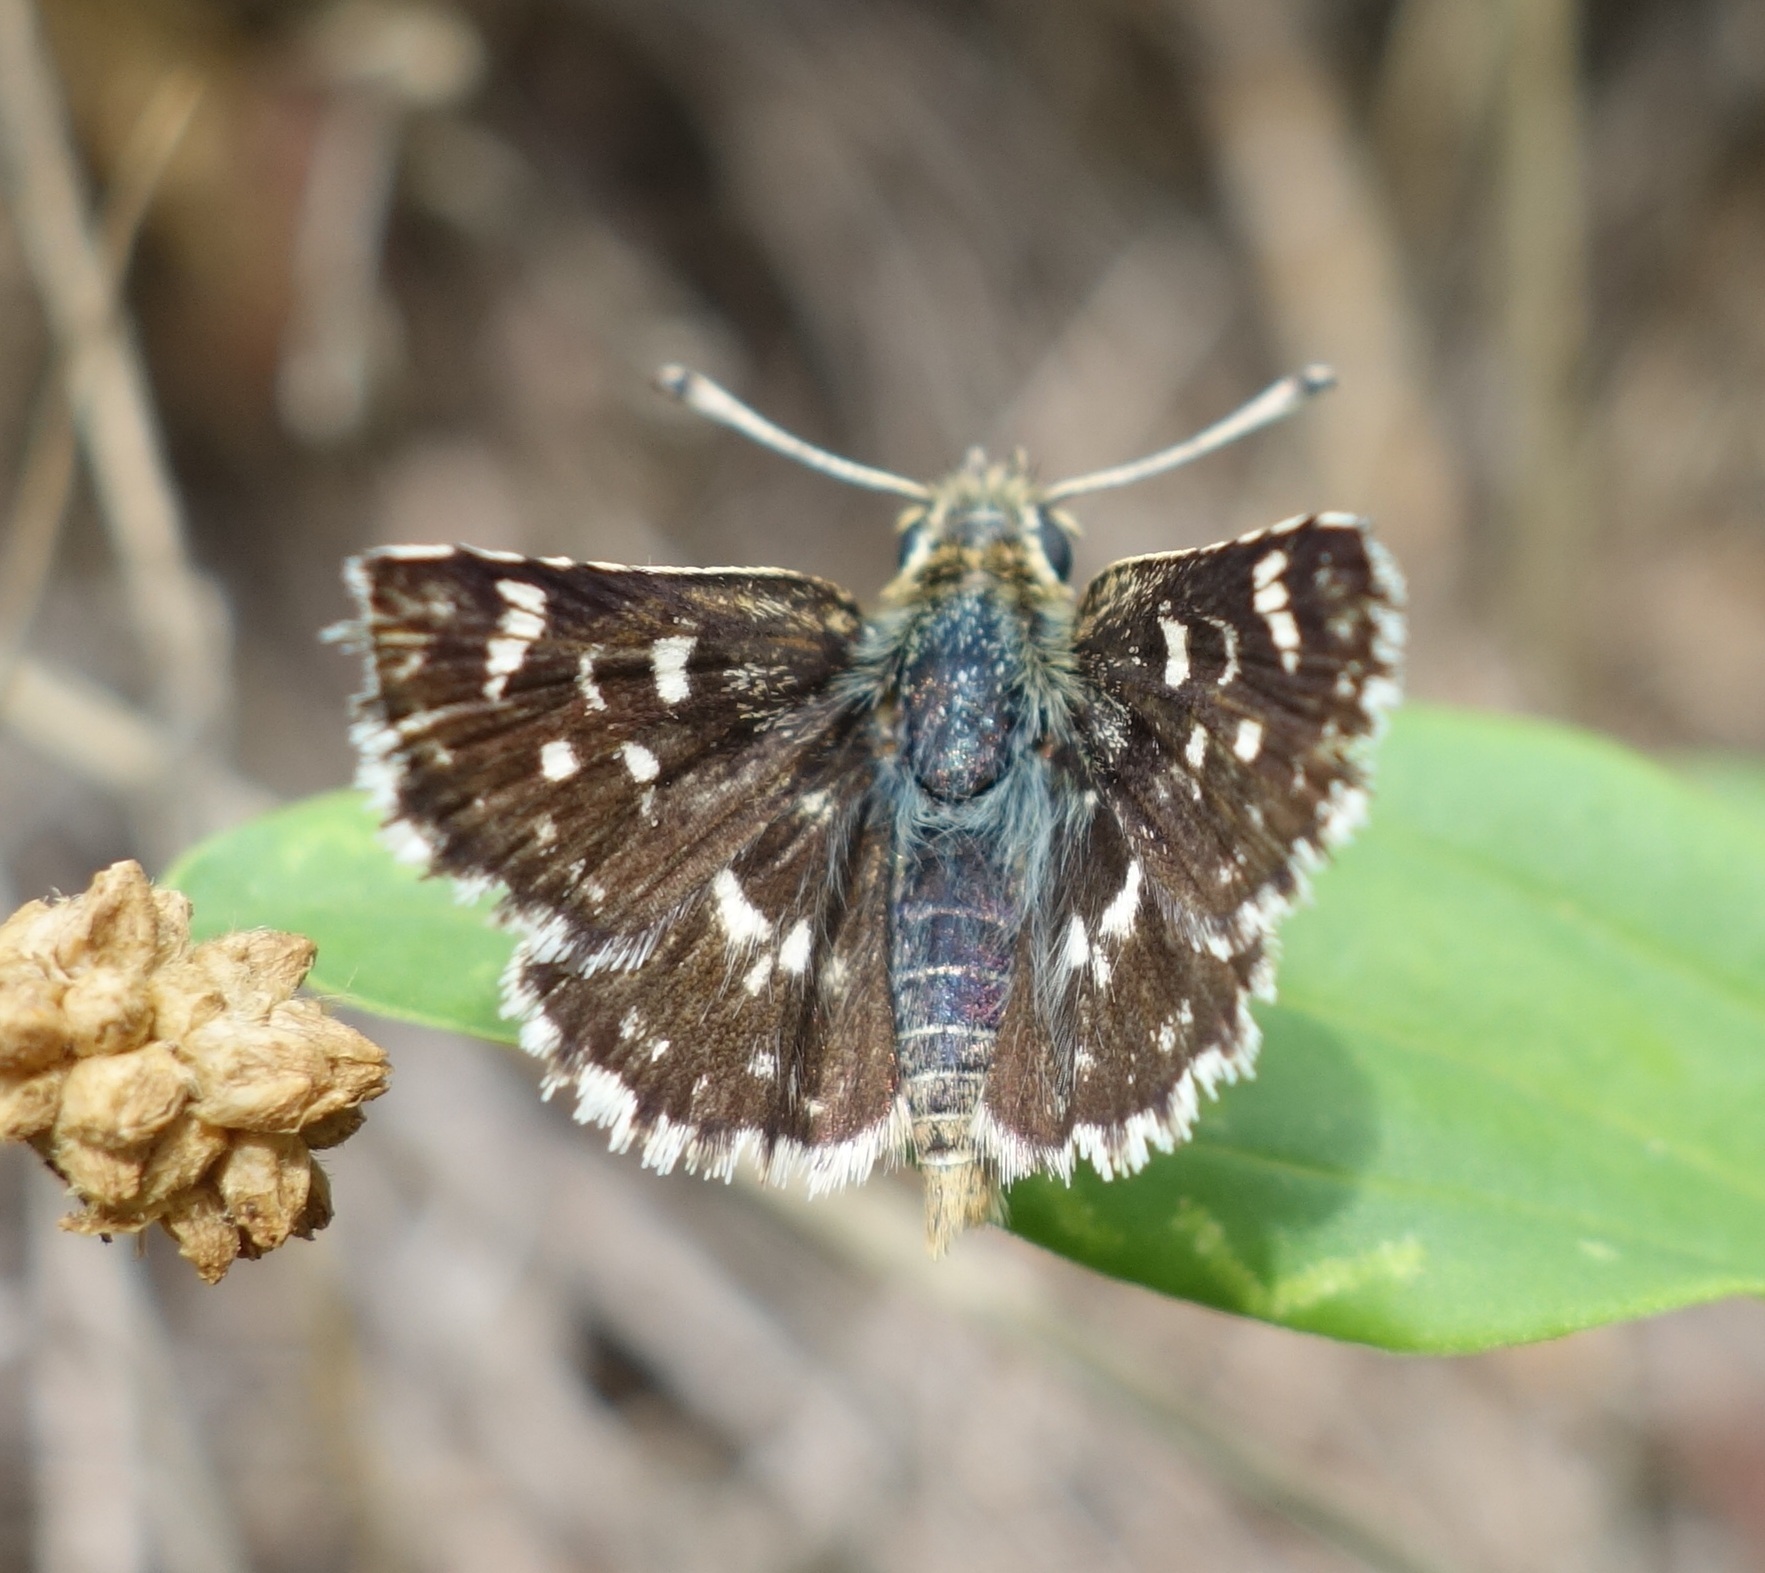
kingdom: Animalia
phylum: Arthropoda
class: Insecta
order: Lepidoptera
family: Hesperiidae
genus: Spialia
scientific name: Spialia sertorius
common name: Red underwing skipper
